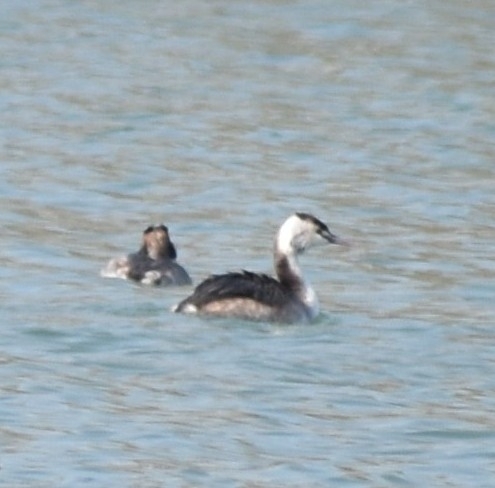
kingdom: Animalia
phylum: Chordata
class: Aves
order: Podicipediformes
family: Podicipedidae
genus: Podiceps
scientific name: Podiceps cristatus
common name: Great crested grebe
